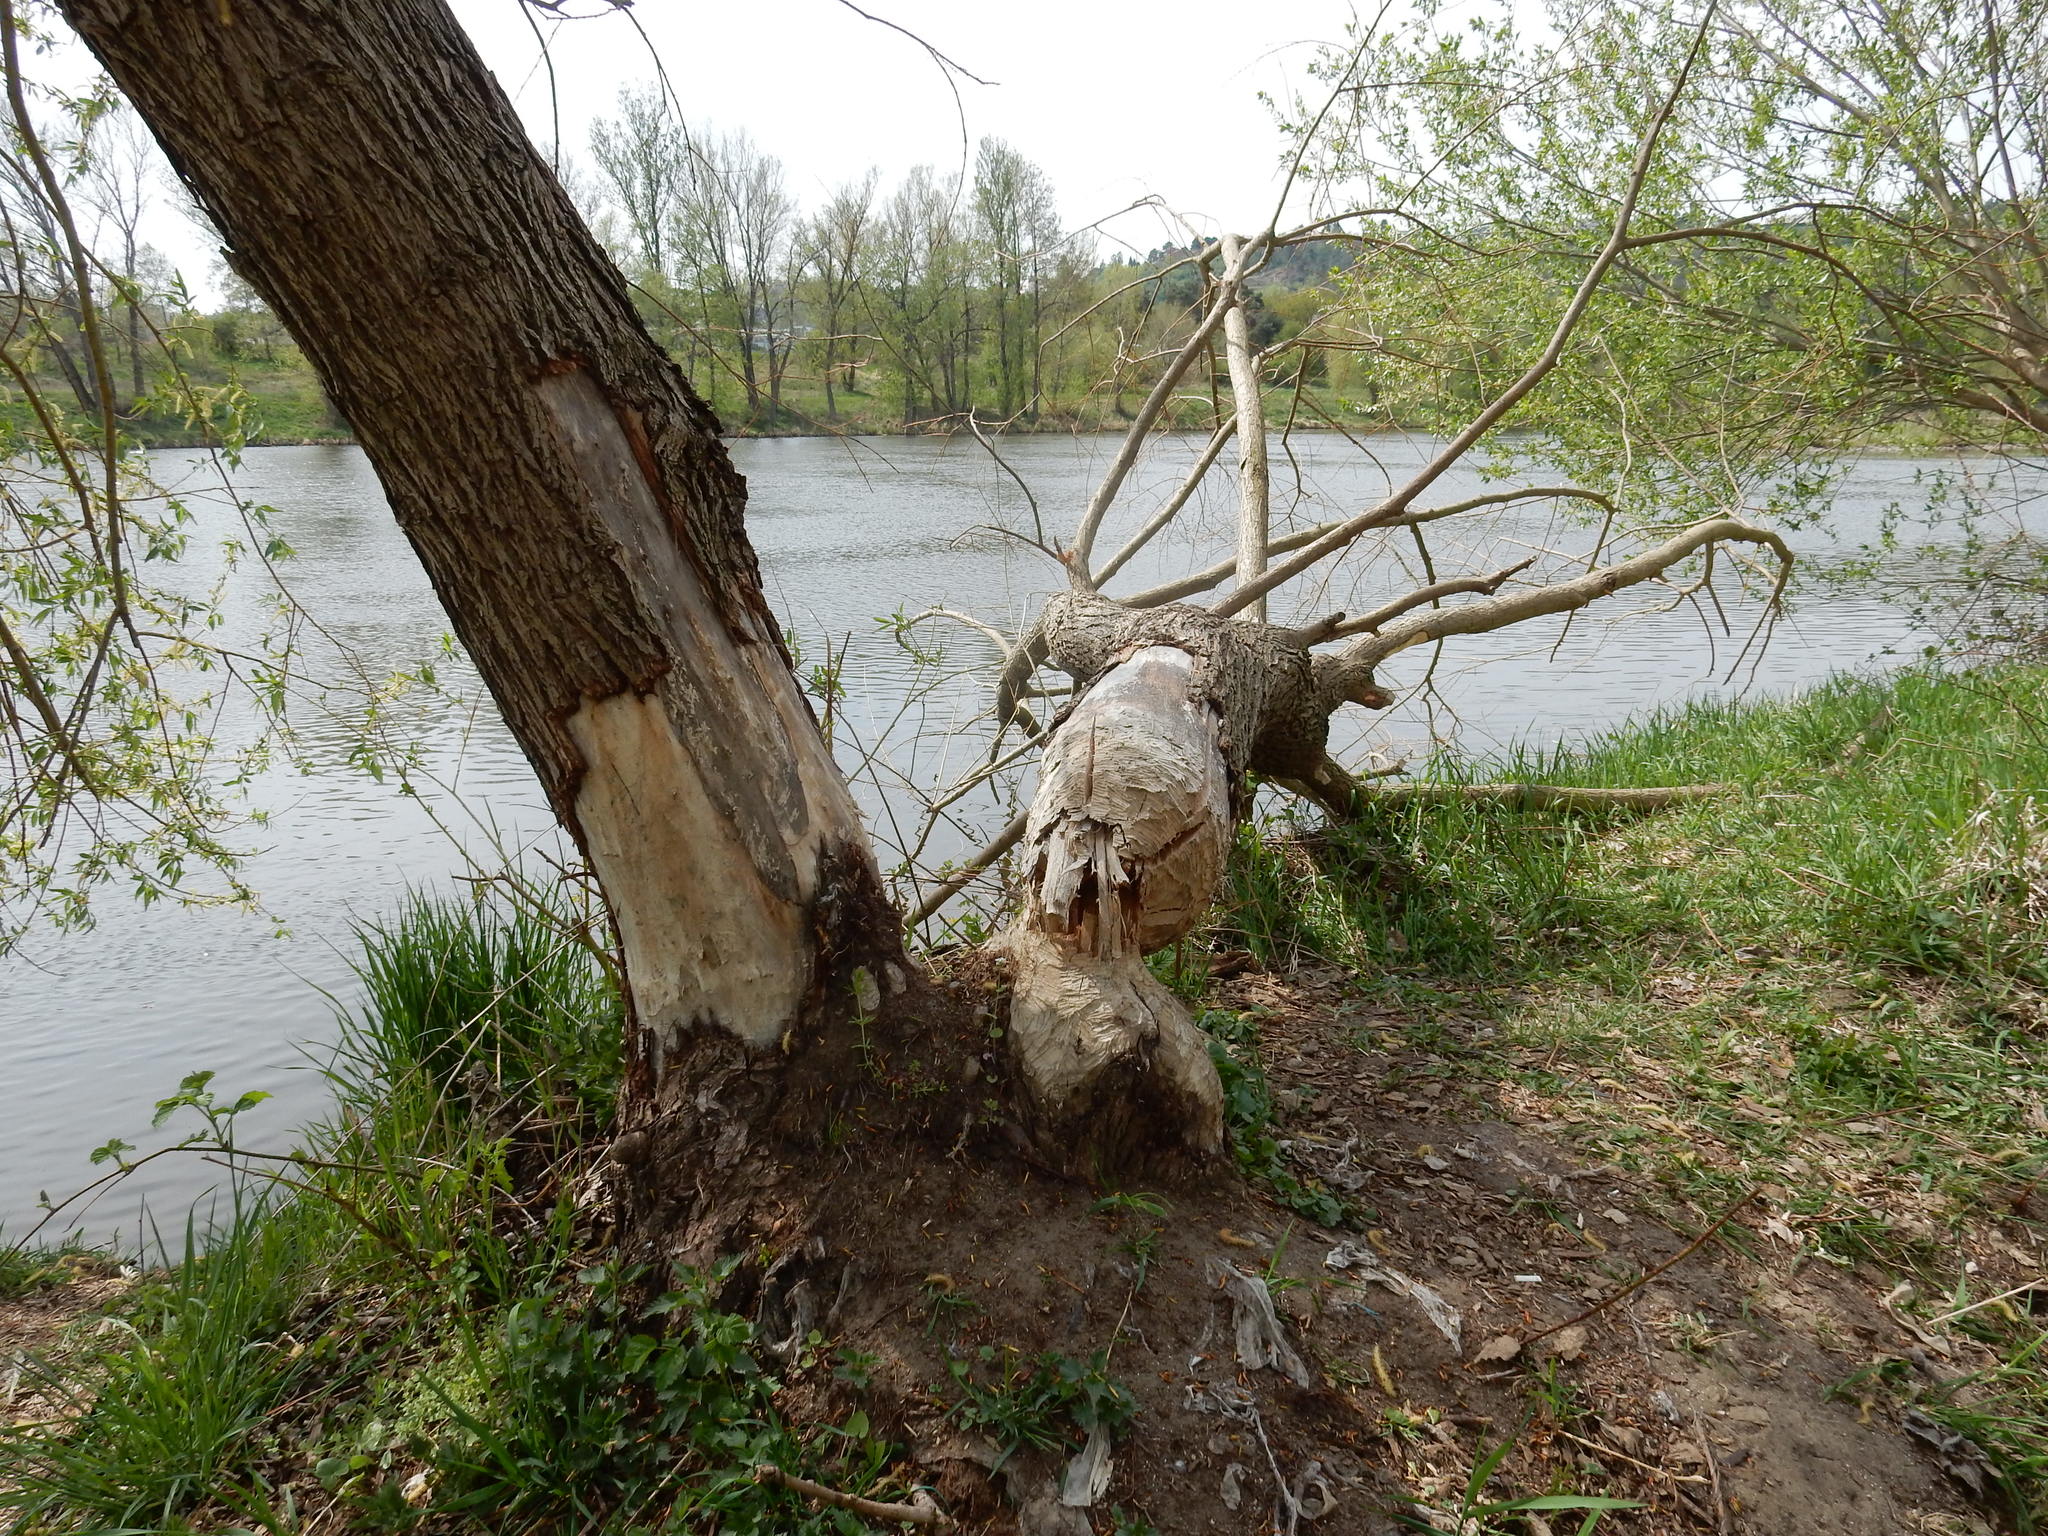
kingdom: Animalia
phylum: Chordata
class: Mammalia
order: Rodentia
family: Castoridae
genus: Castor
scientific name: Castor fiber
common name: Eurasian beaver
